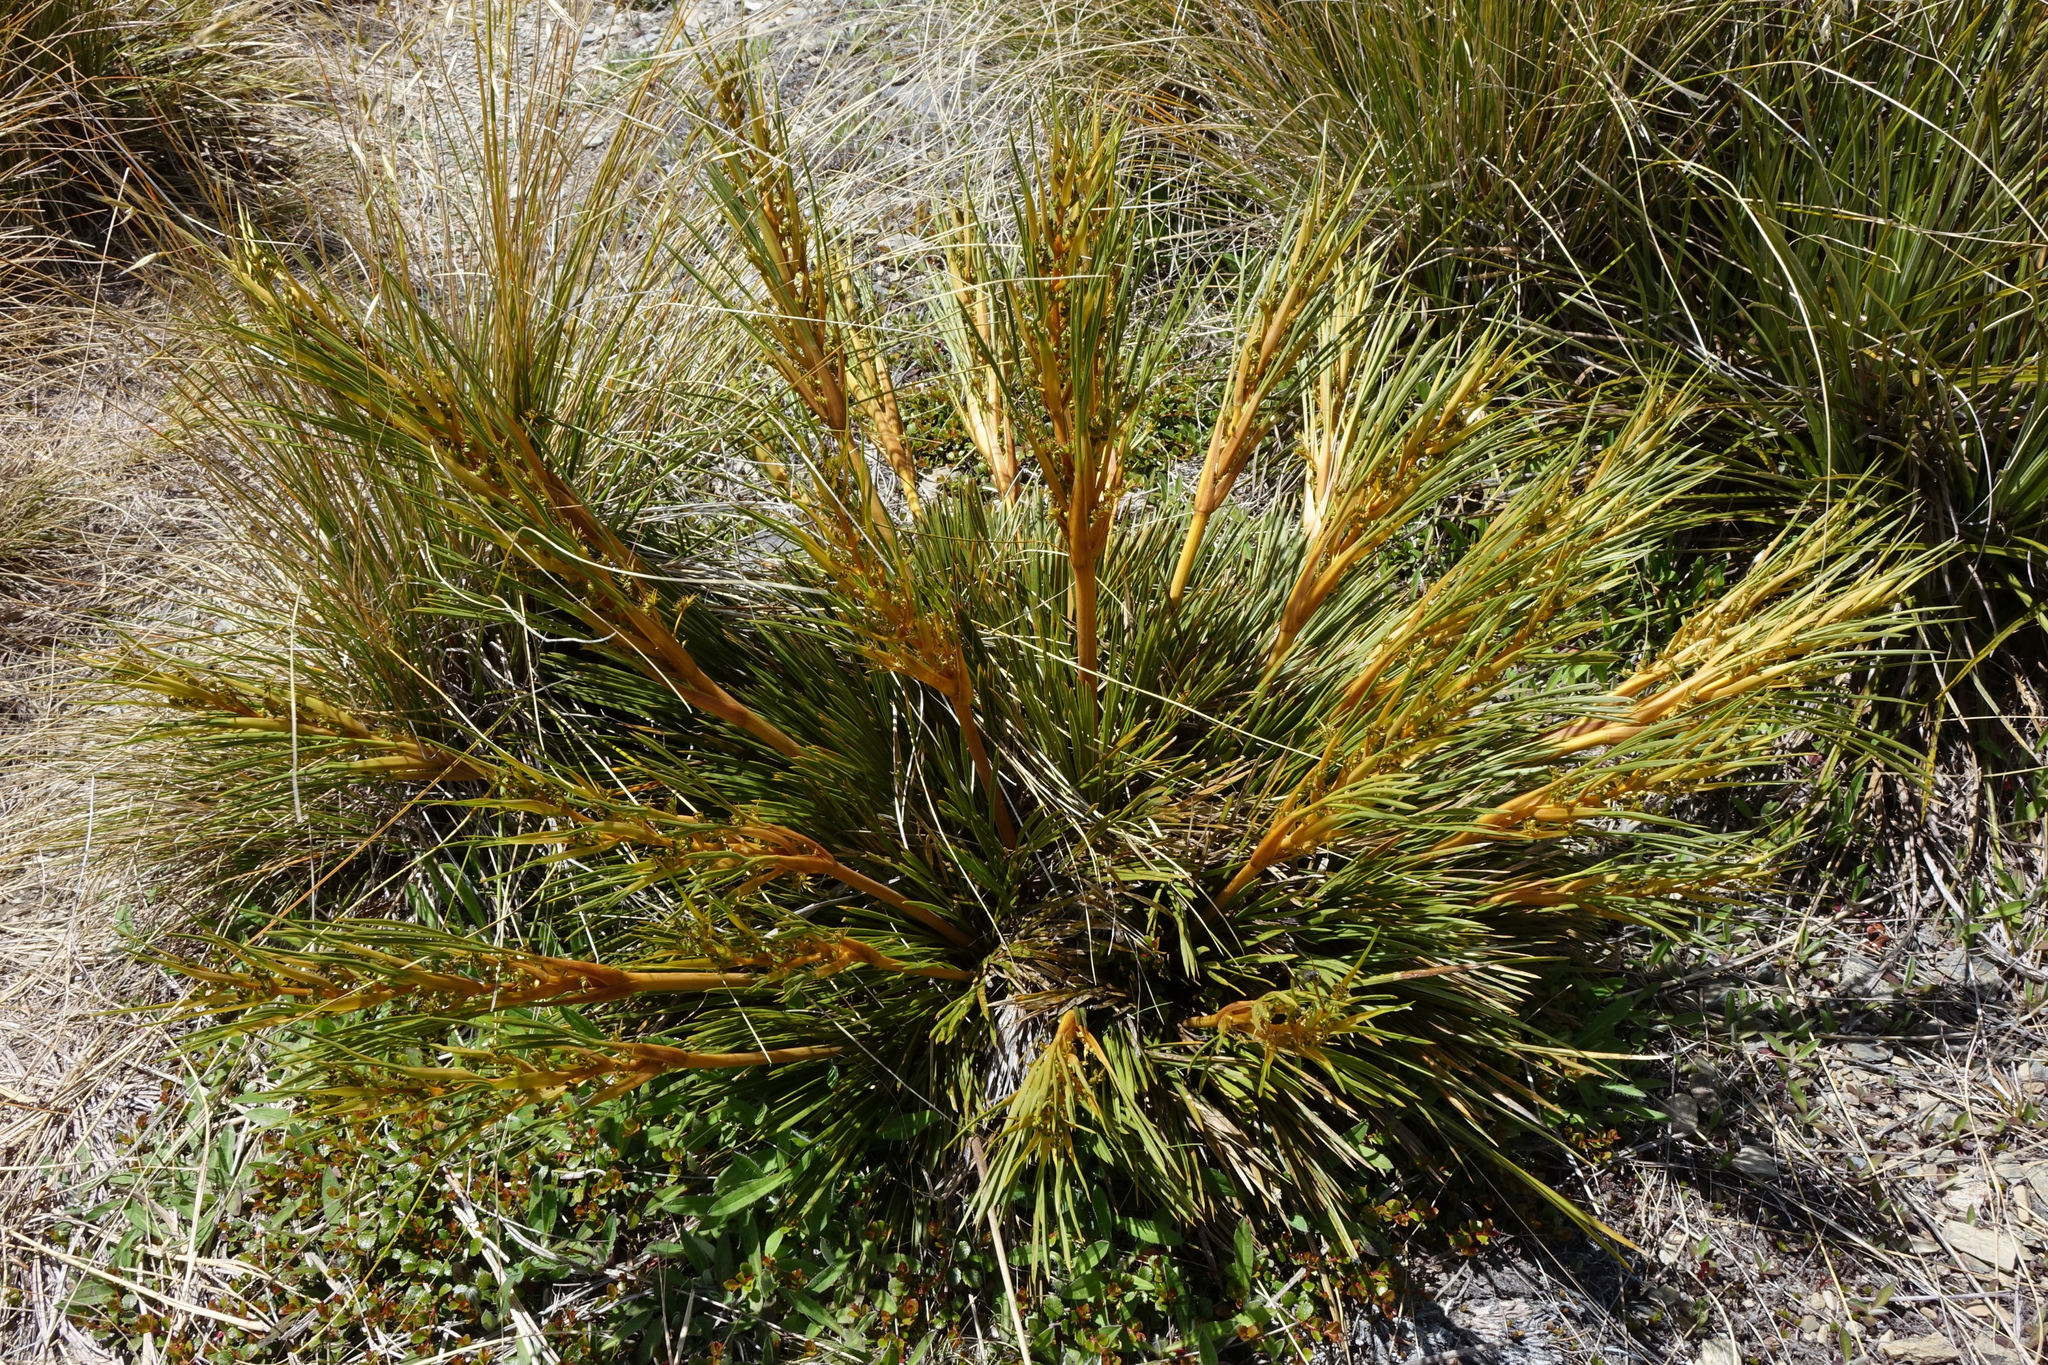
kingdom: Plantae
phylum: Tracheophyta
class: Magnoliopsida
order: Apiales
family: Apiaceae
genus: Aciphylla
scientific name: Aciphylla montana
